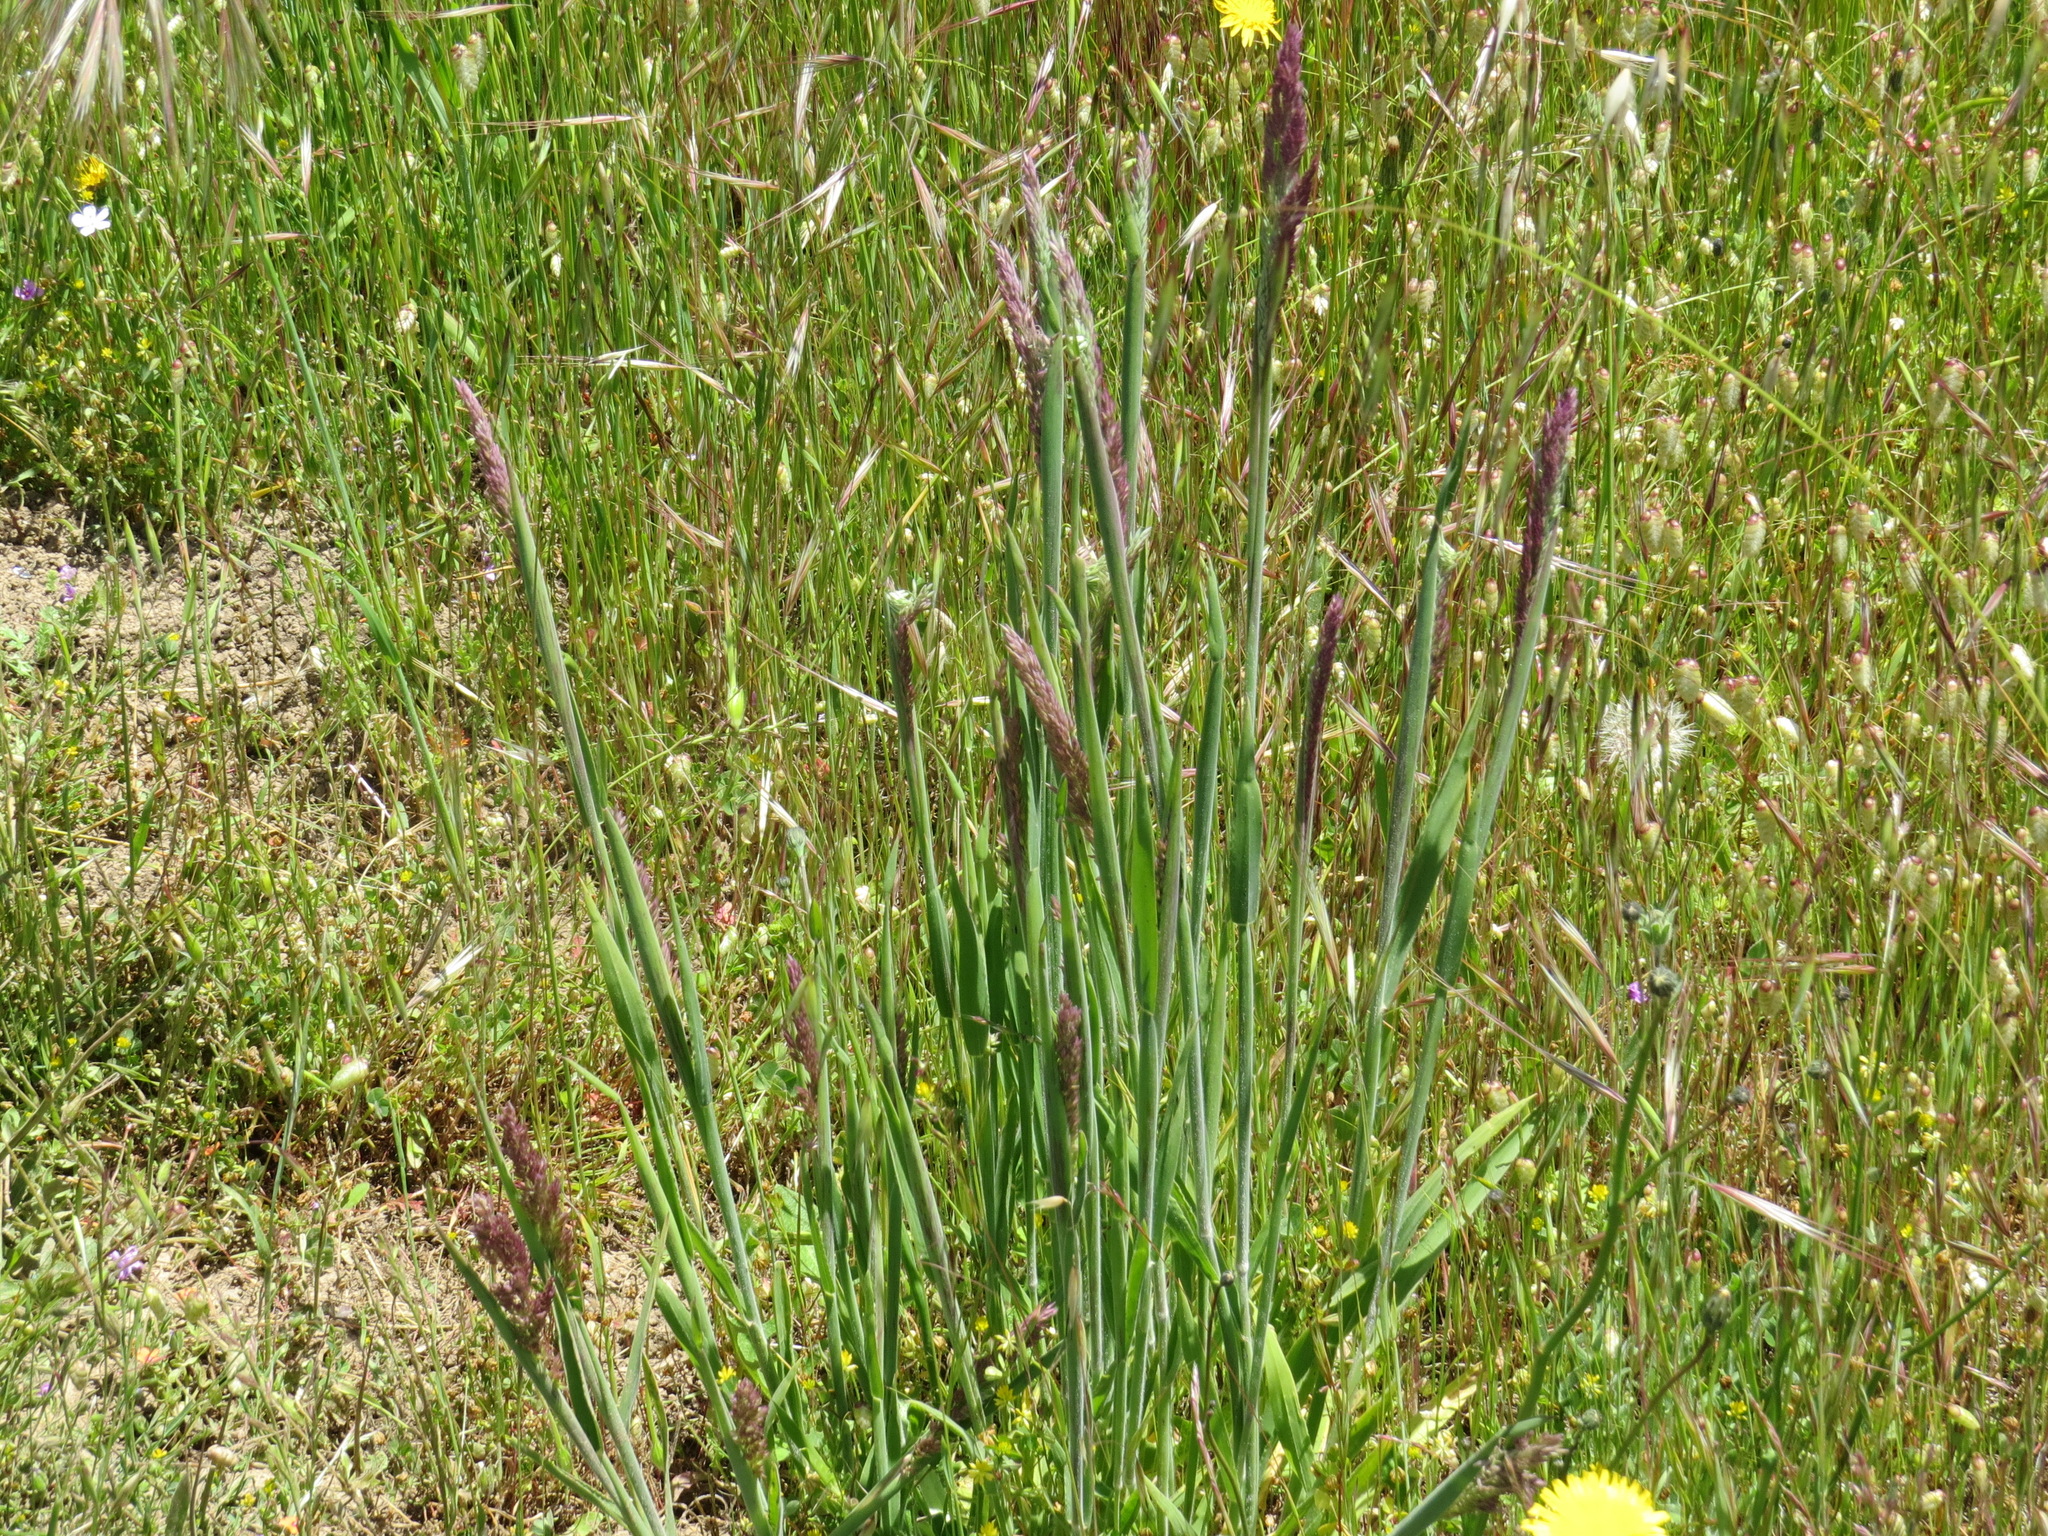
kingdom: Plantae
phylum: Tracheophyta
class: Liliopsida
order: Poales
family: Poaceae
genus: Holcus
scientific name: Holcus lanatus
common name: Yorkshire-fog
